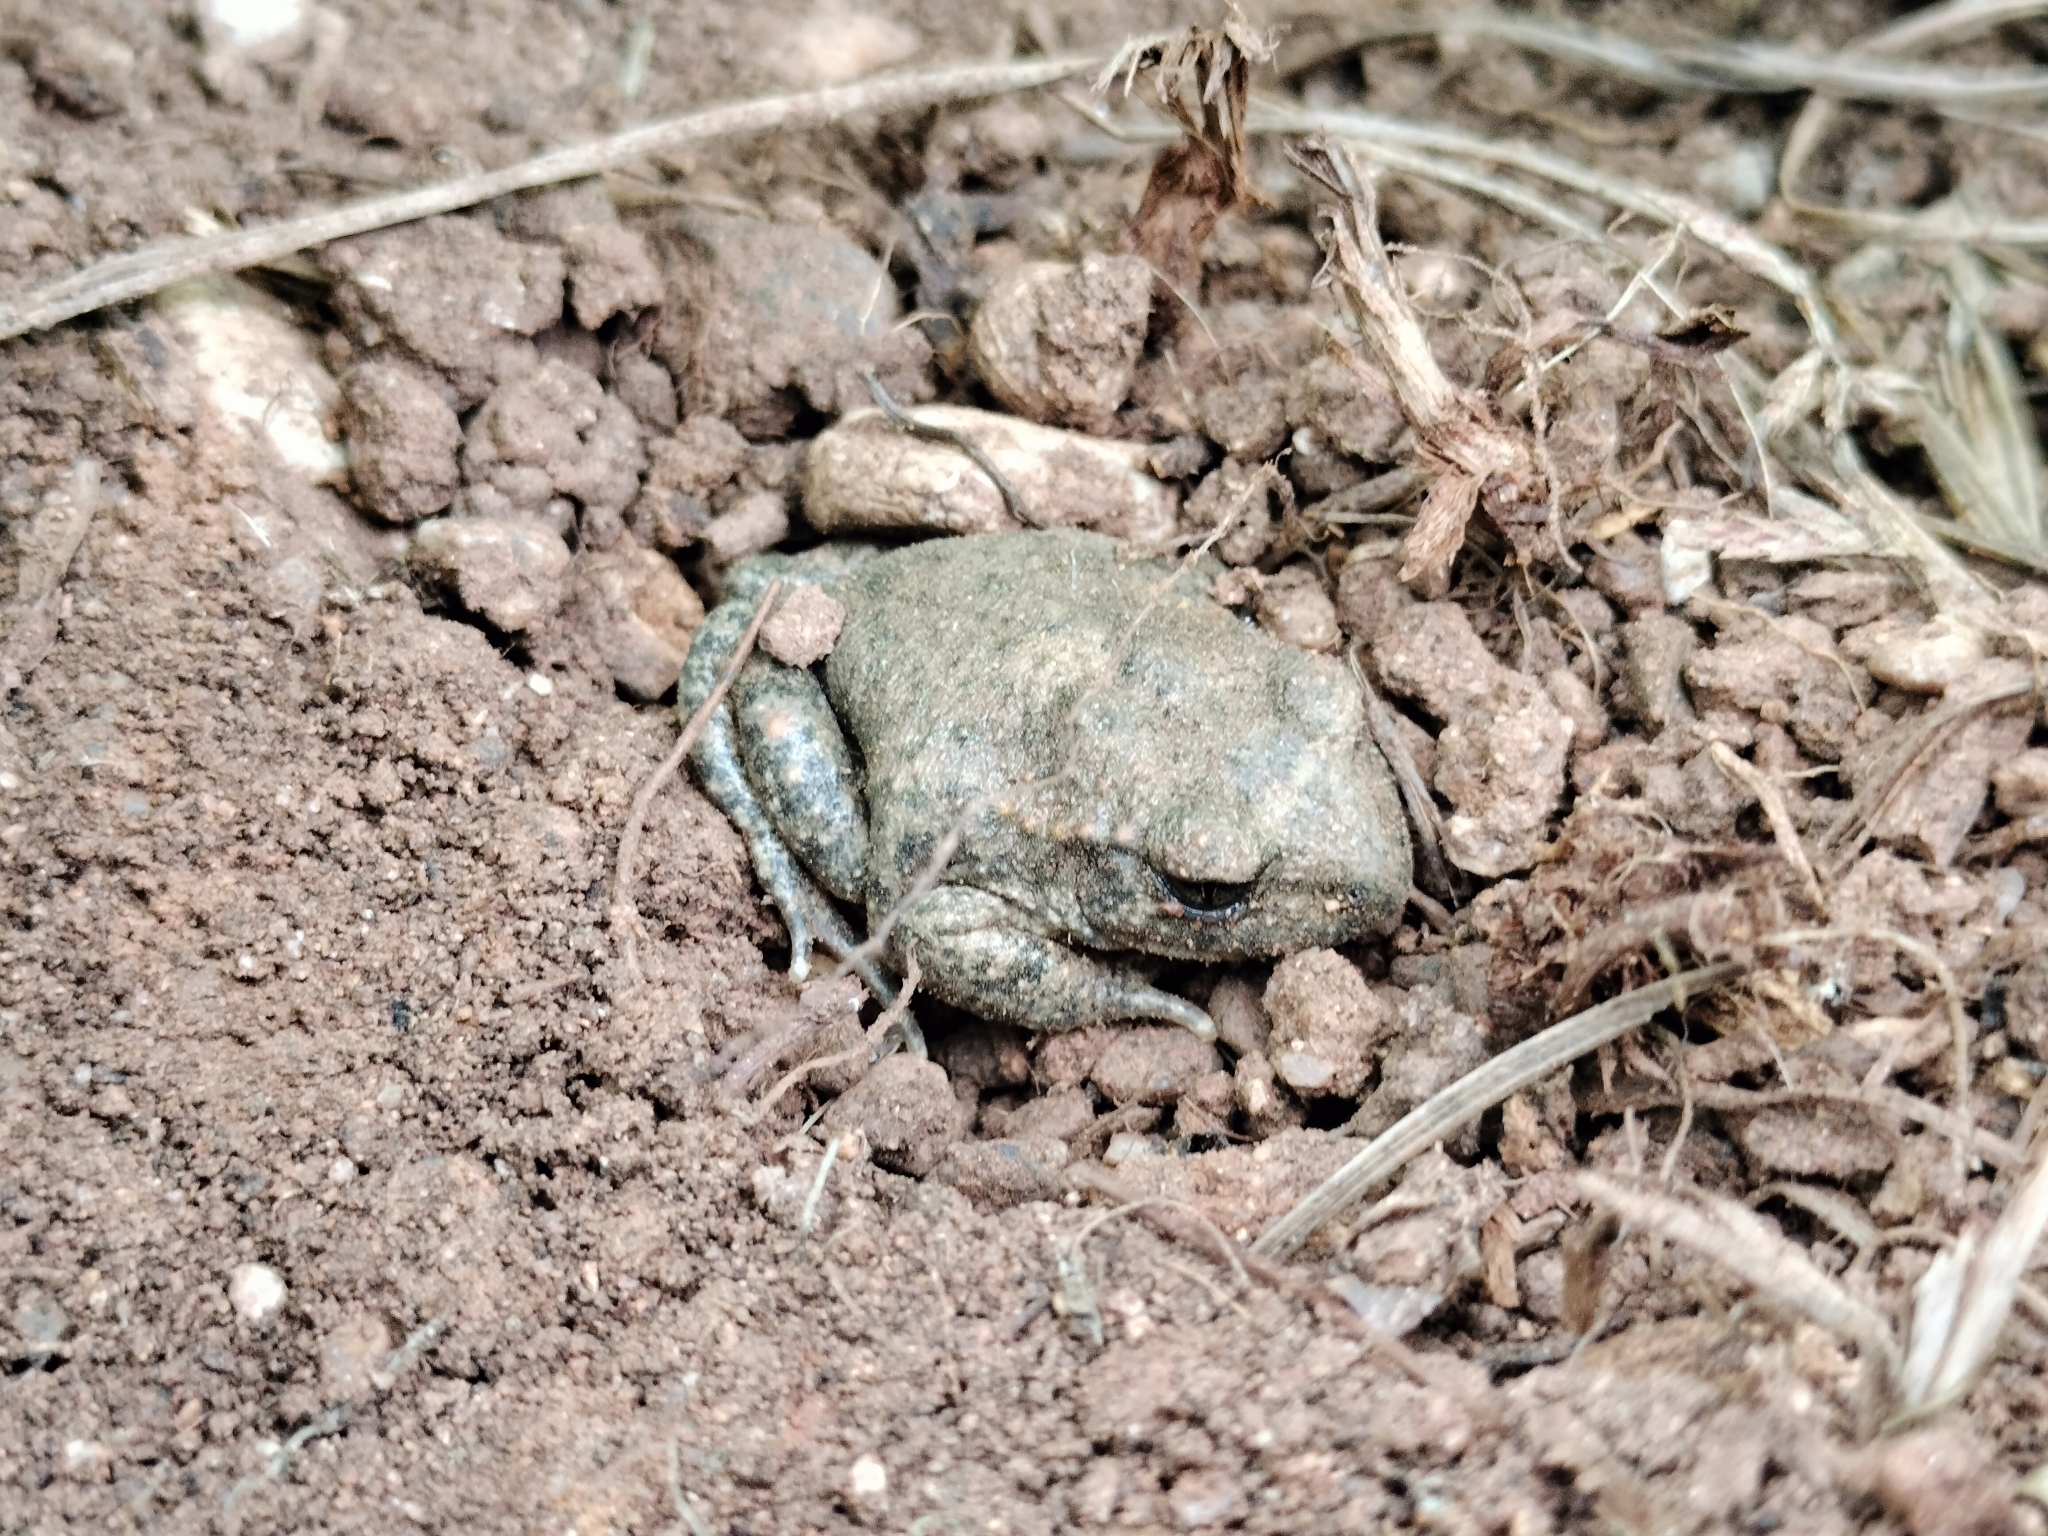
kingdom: Animalia
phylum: Chordata
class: Amphibia
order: Anura
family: Alytidae
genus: Alytes
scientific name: Alytes obstetricans
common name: Midwife toad
